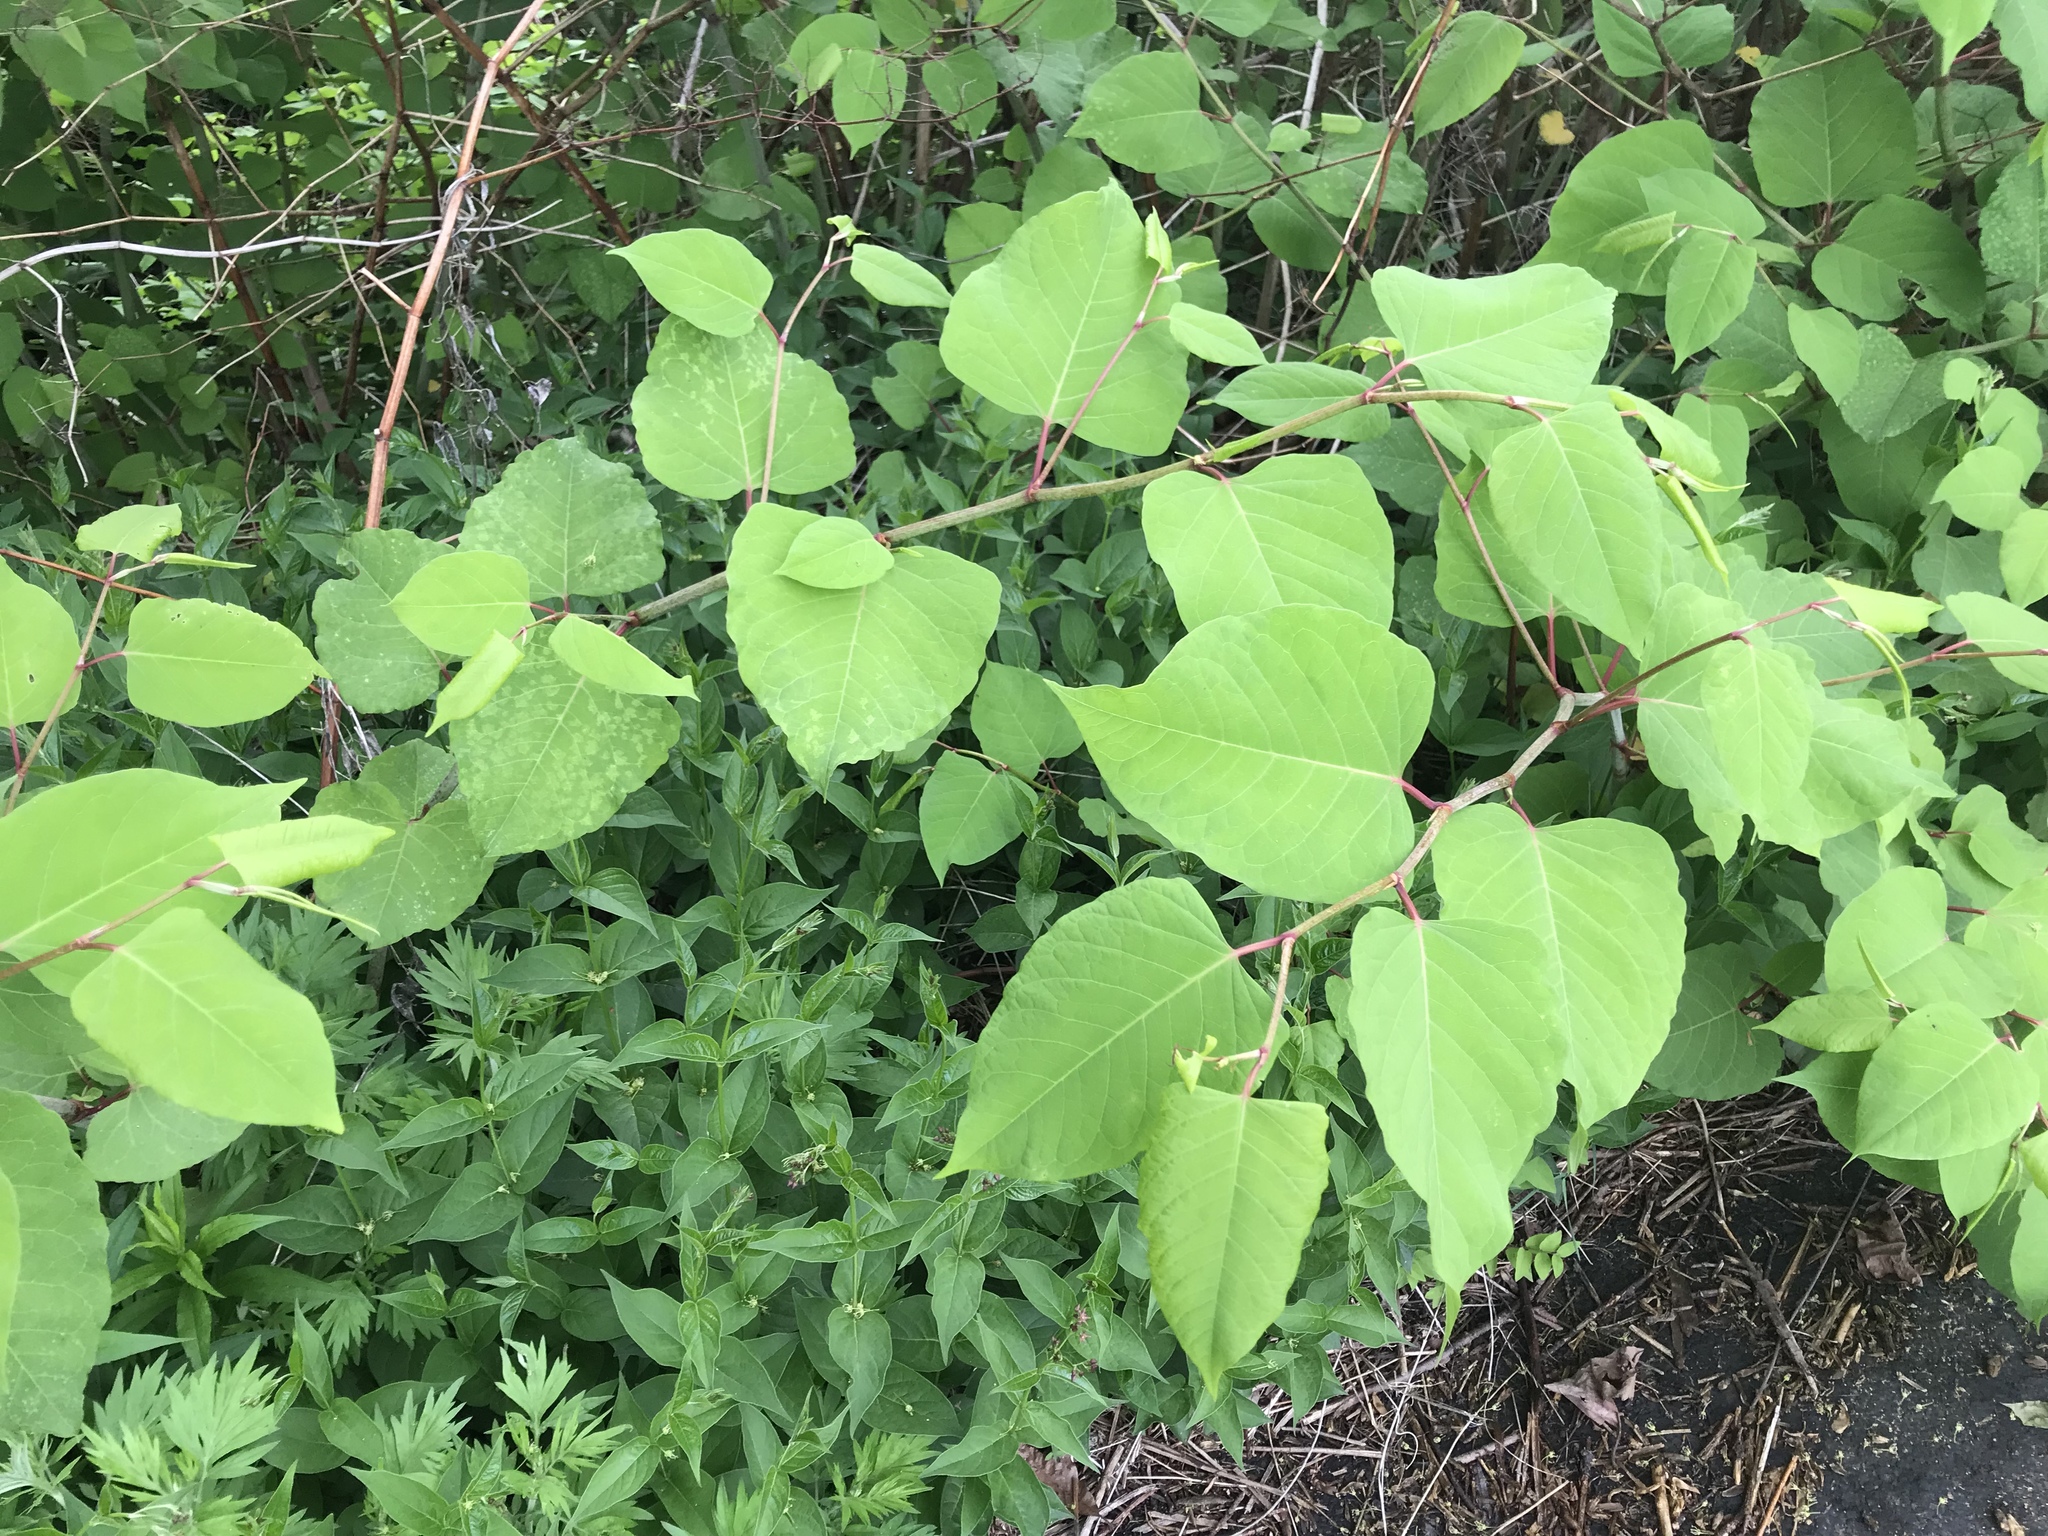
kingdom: Plantae
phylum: Tracheophyta
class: Magnoliopsida
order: Caryophyllales
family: Polygonaceae
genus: Reynoutria
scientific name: Reynoutria japonica
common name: Japanese knotweed
